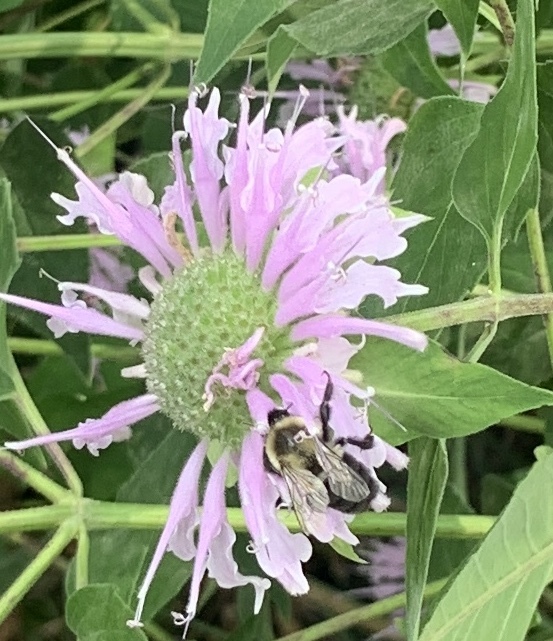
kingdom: Animalia
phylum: Arthropoda
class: Insecta
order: Hymenoptera
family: Apidae
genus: Bombus
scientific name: Bombus impatiens
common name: Common eastern bumble bee
